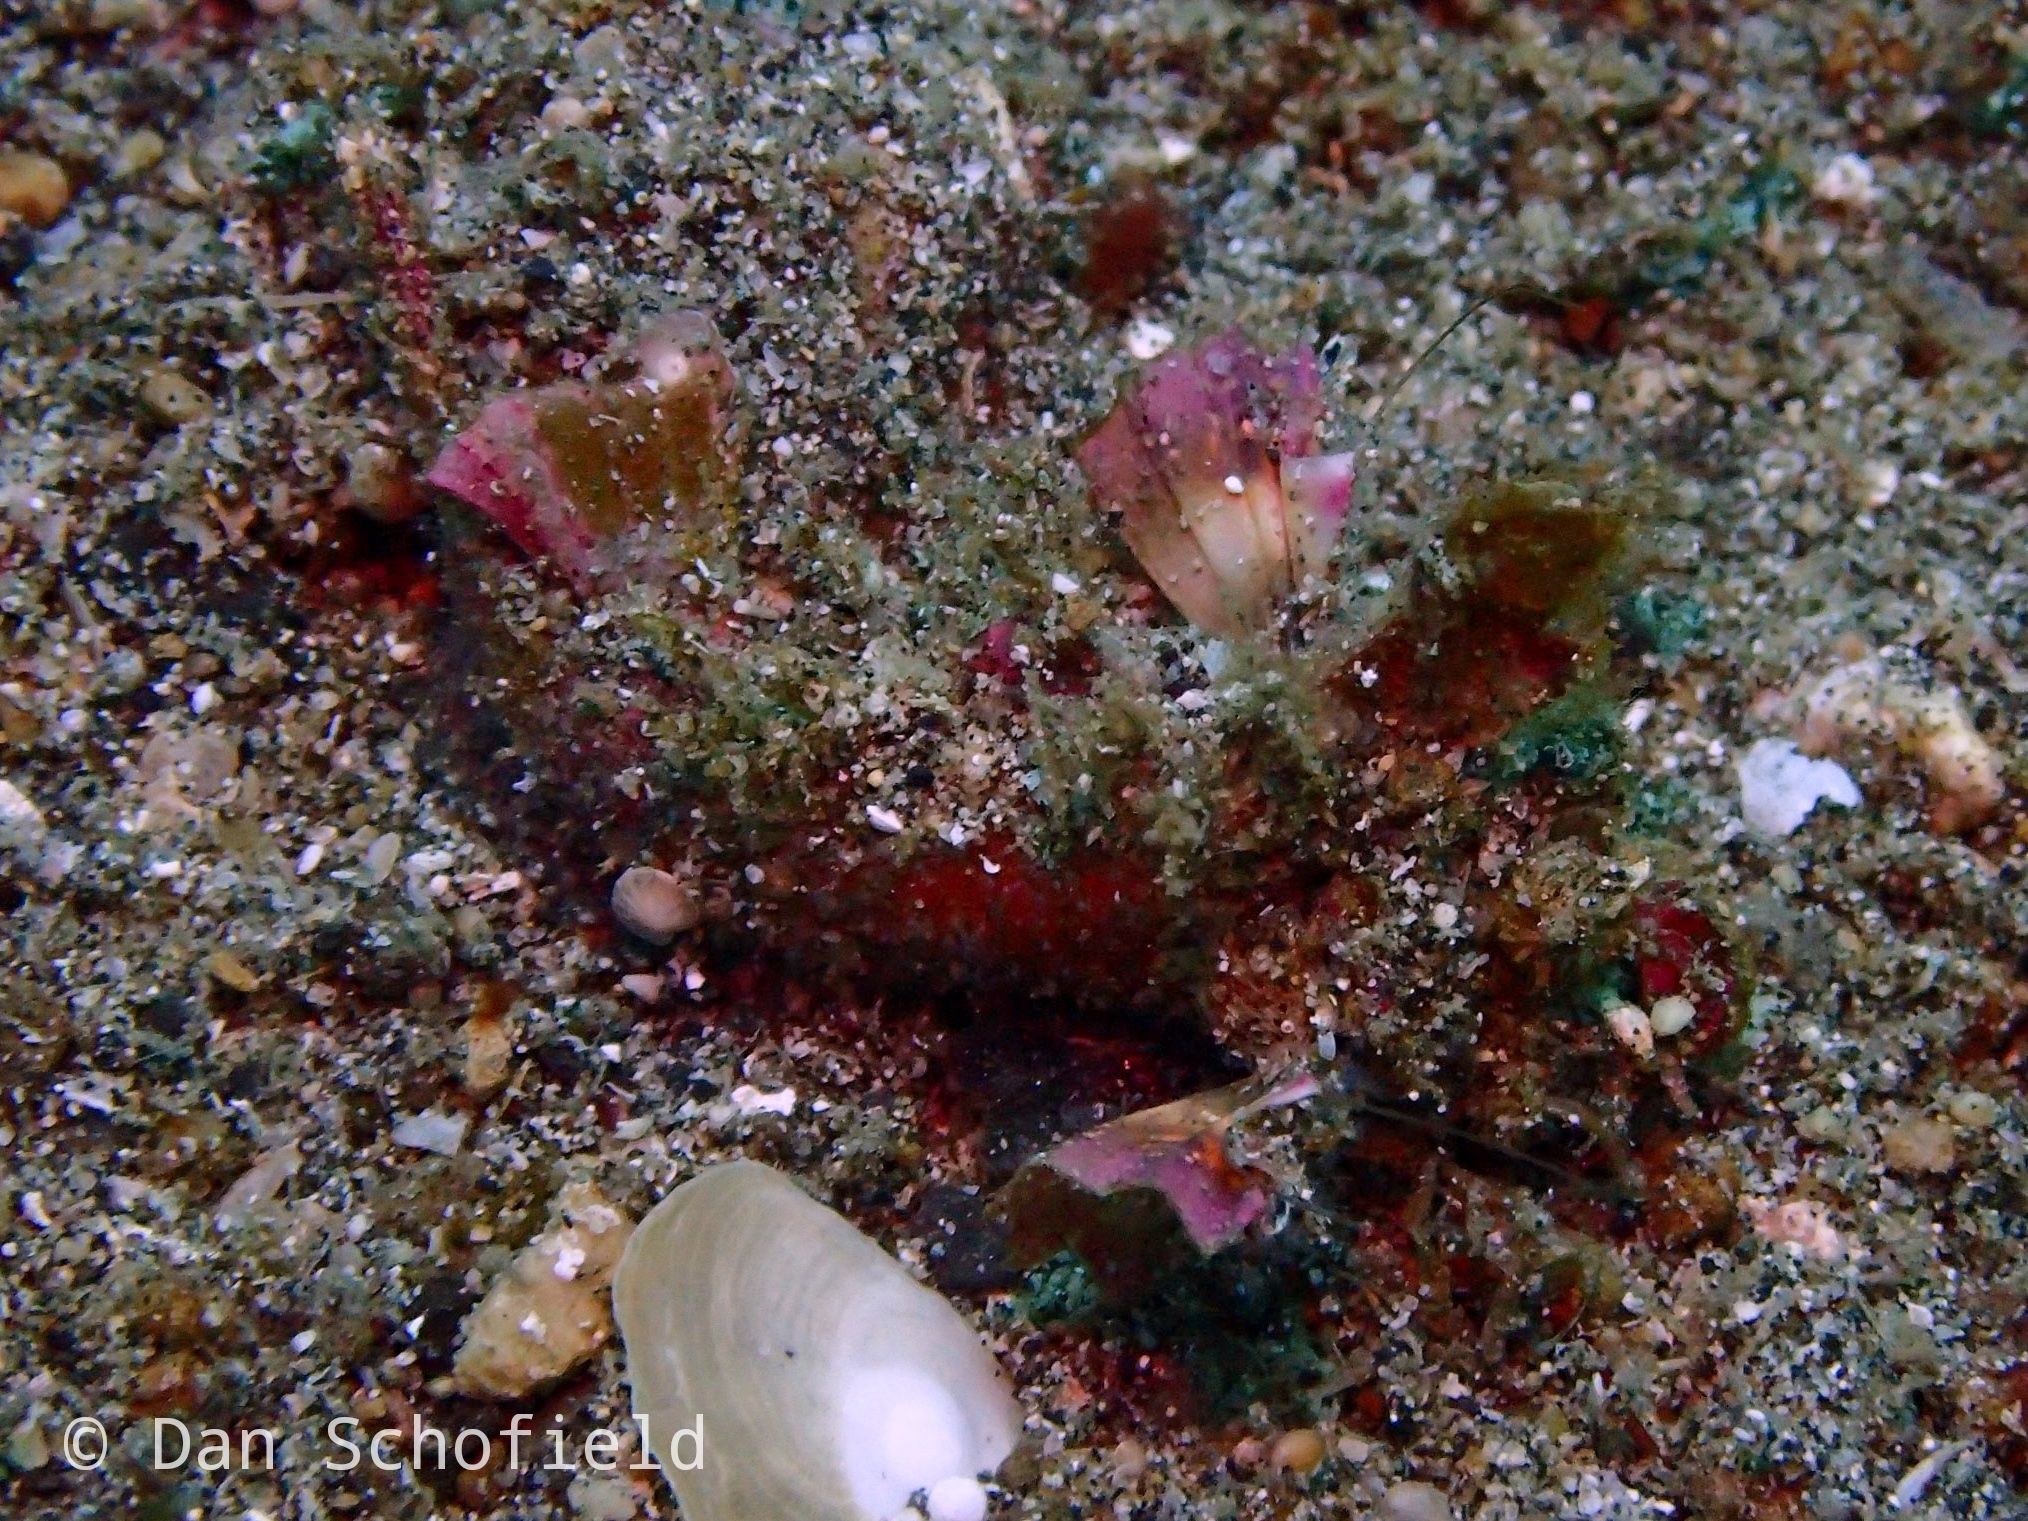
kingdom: Animalia
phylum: Chordata
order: Scorpaeniformes
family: Synanceiidae
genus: Inimicus
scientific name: Inimicus didactylus
